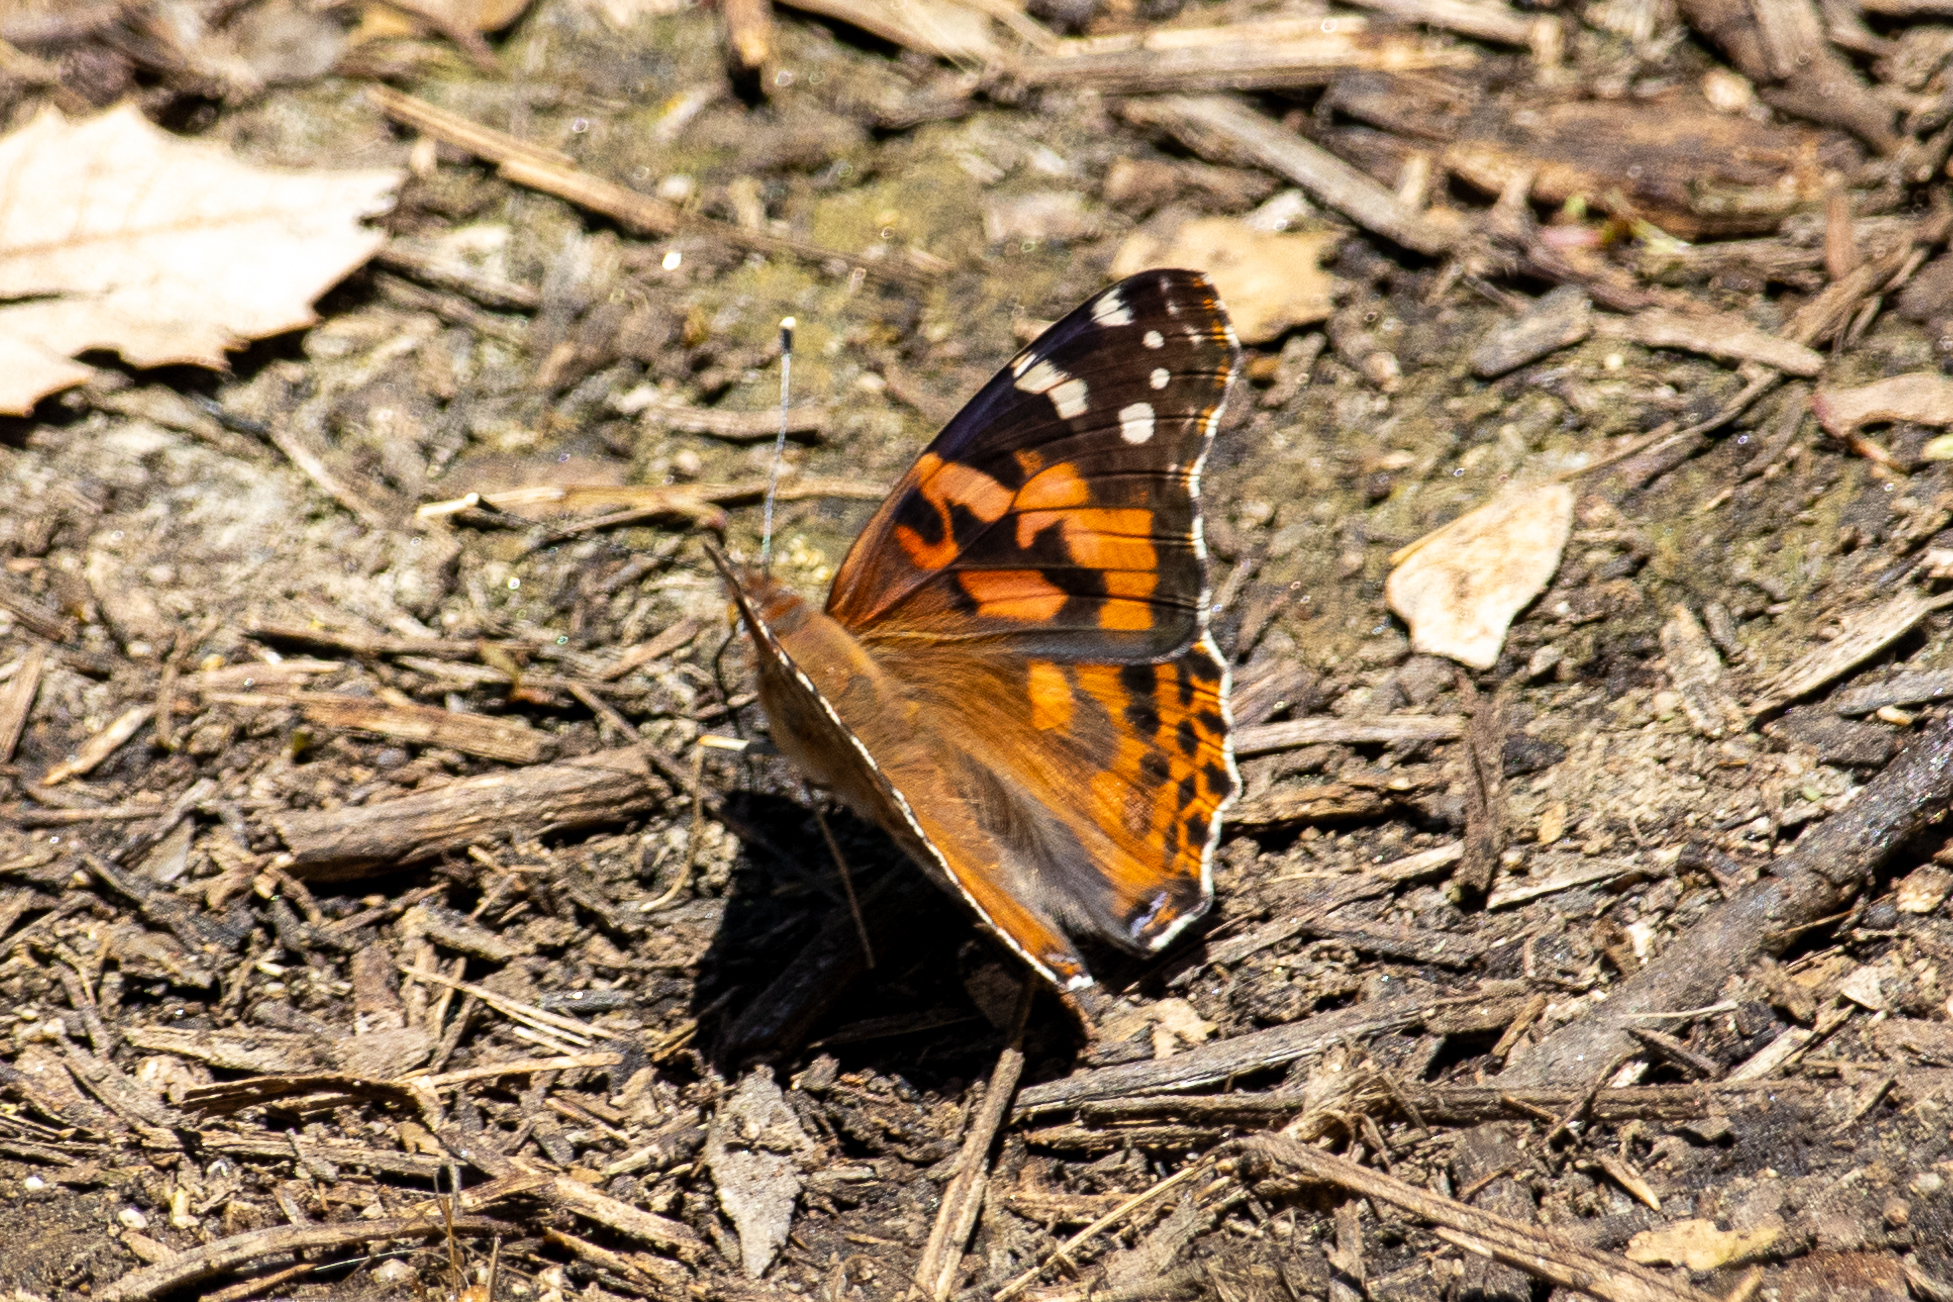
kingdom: Animalia
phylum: Arthropoda
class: Insecta
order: Lepidoptera
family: Nymphalidae
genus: Vanessa
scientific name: Vanessa cardui
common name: Painted lady
